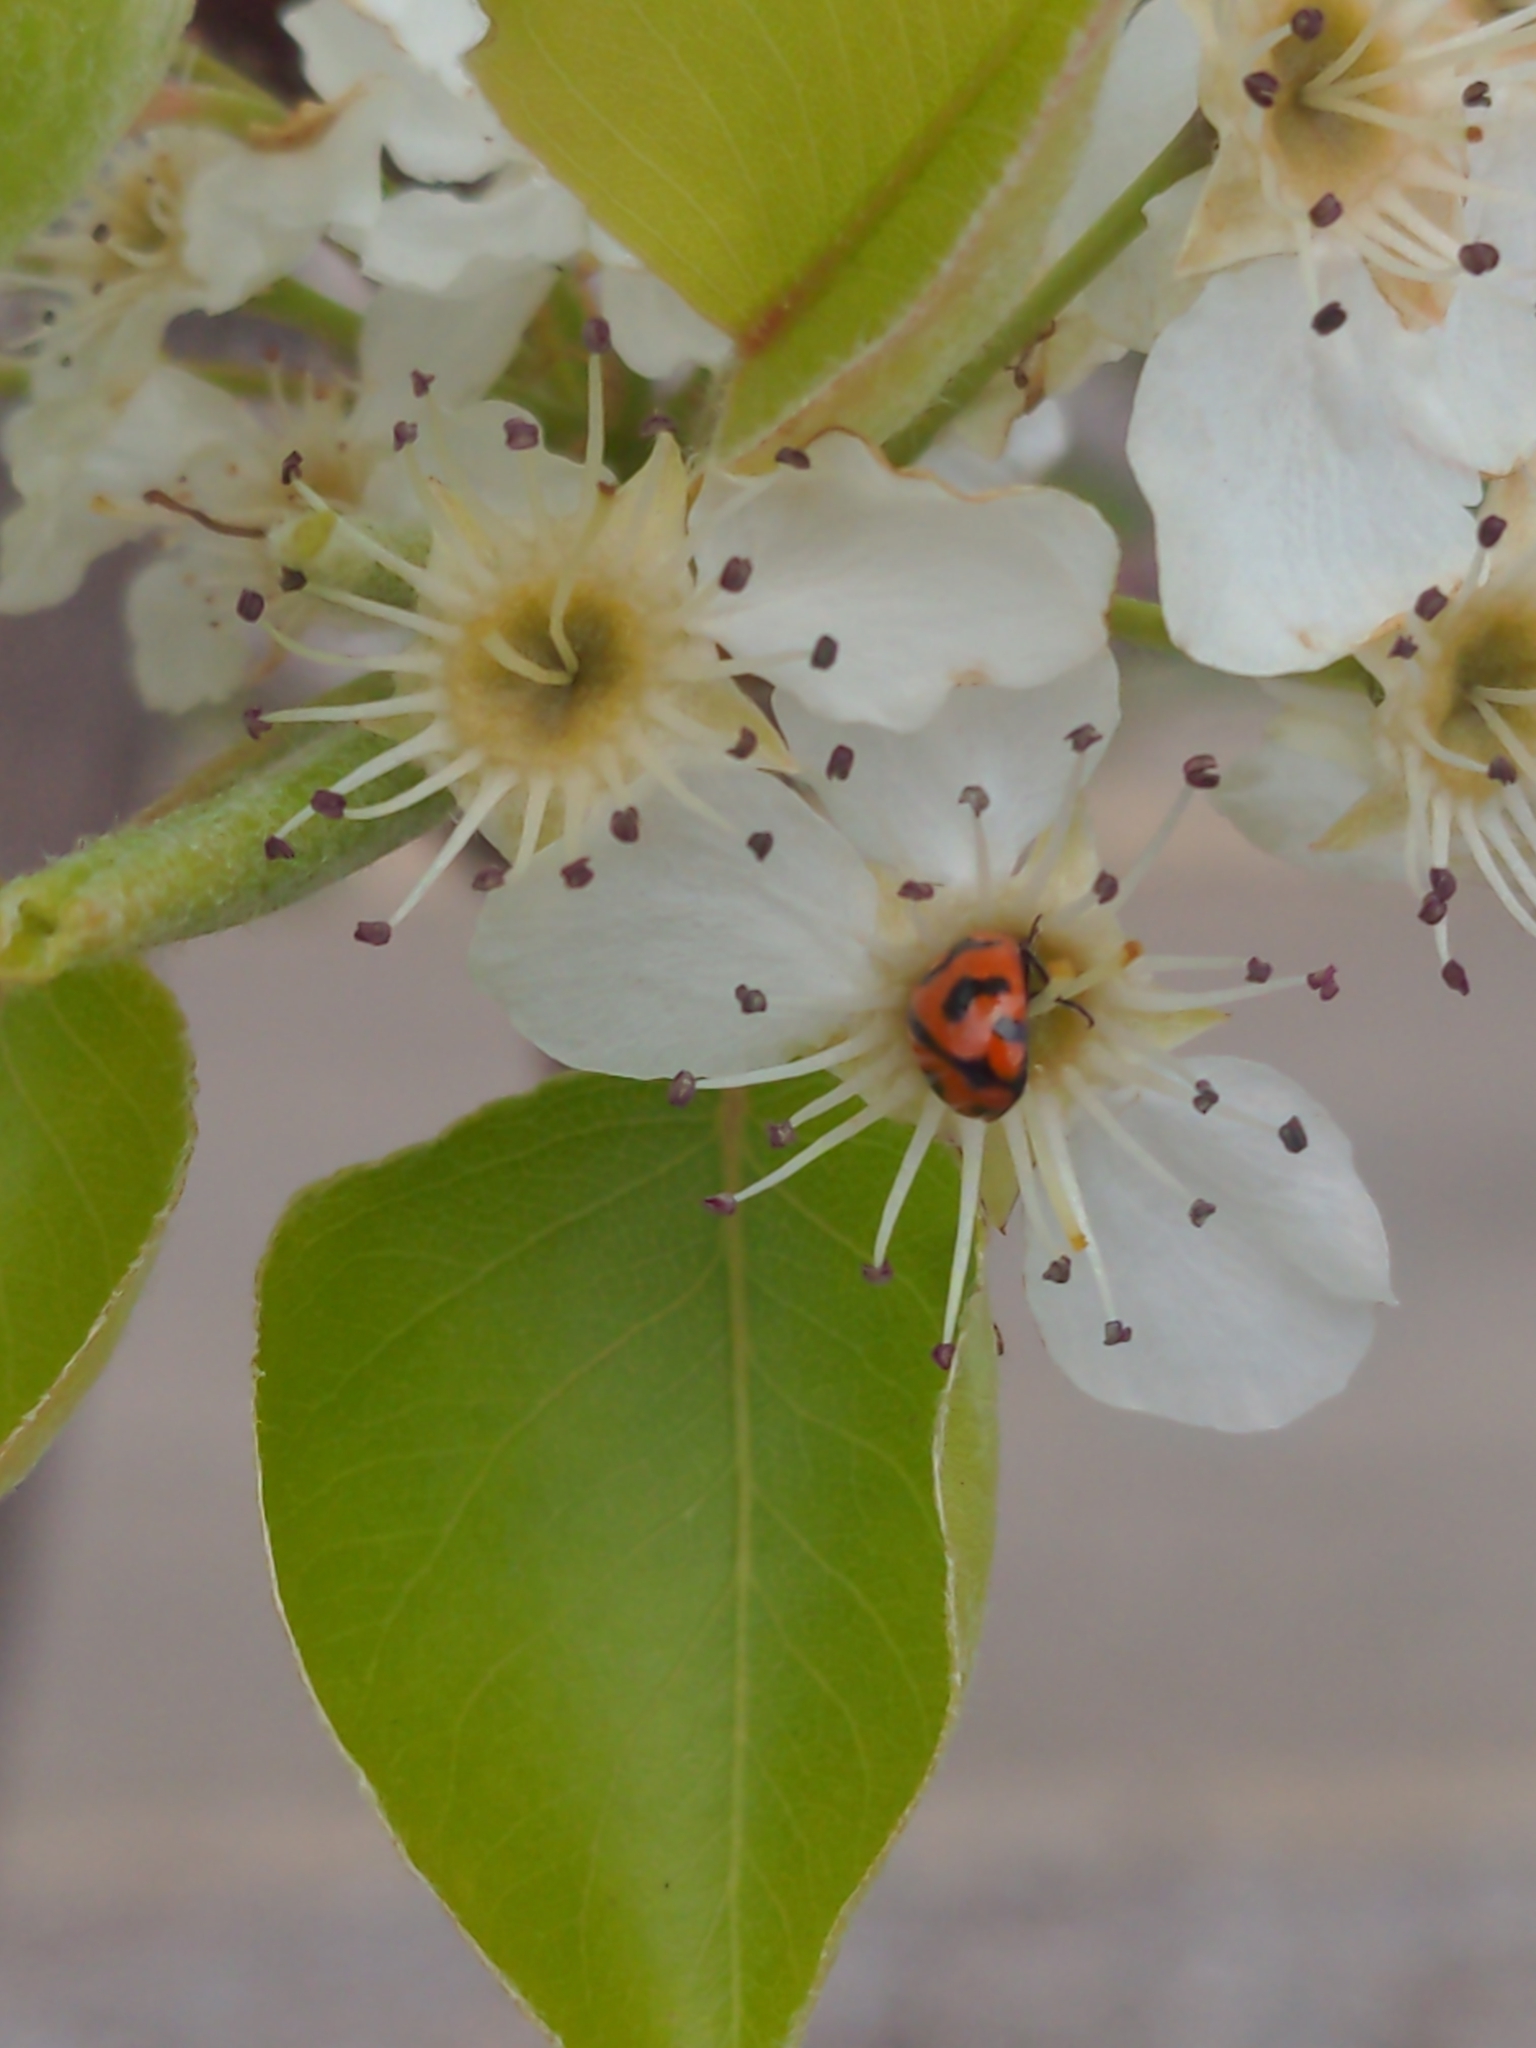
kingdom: Animalia
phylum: Arthropoda
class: Insecta
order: Coleoptera
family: Coccinellidae
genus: Coccinella
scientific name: Coccinella transversalis
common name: Transverse lady beetle
